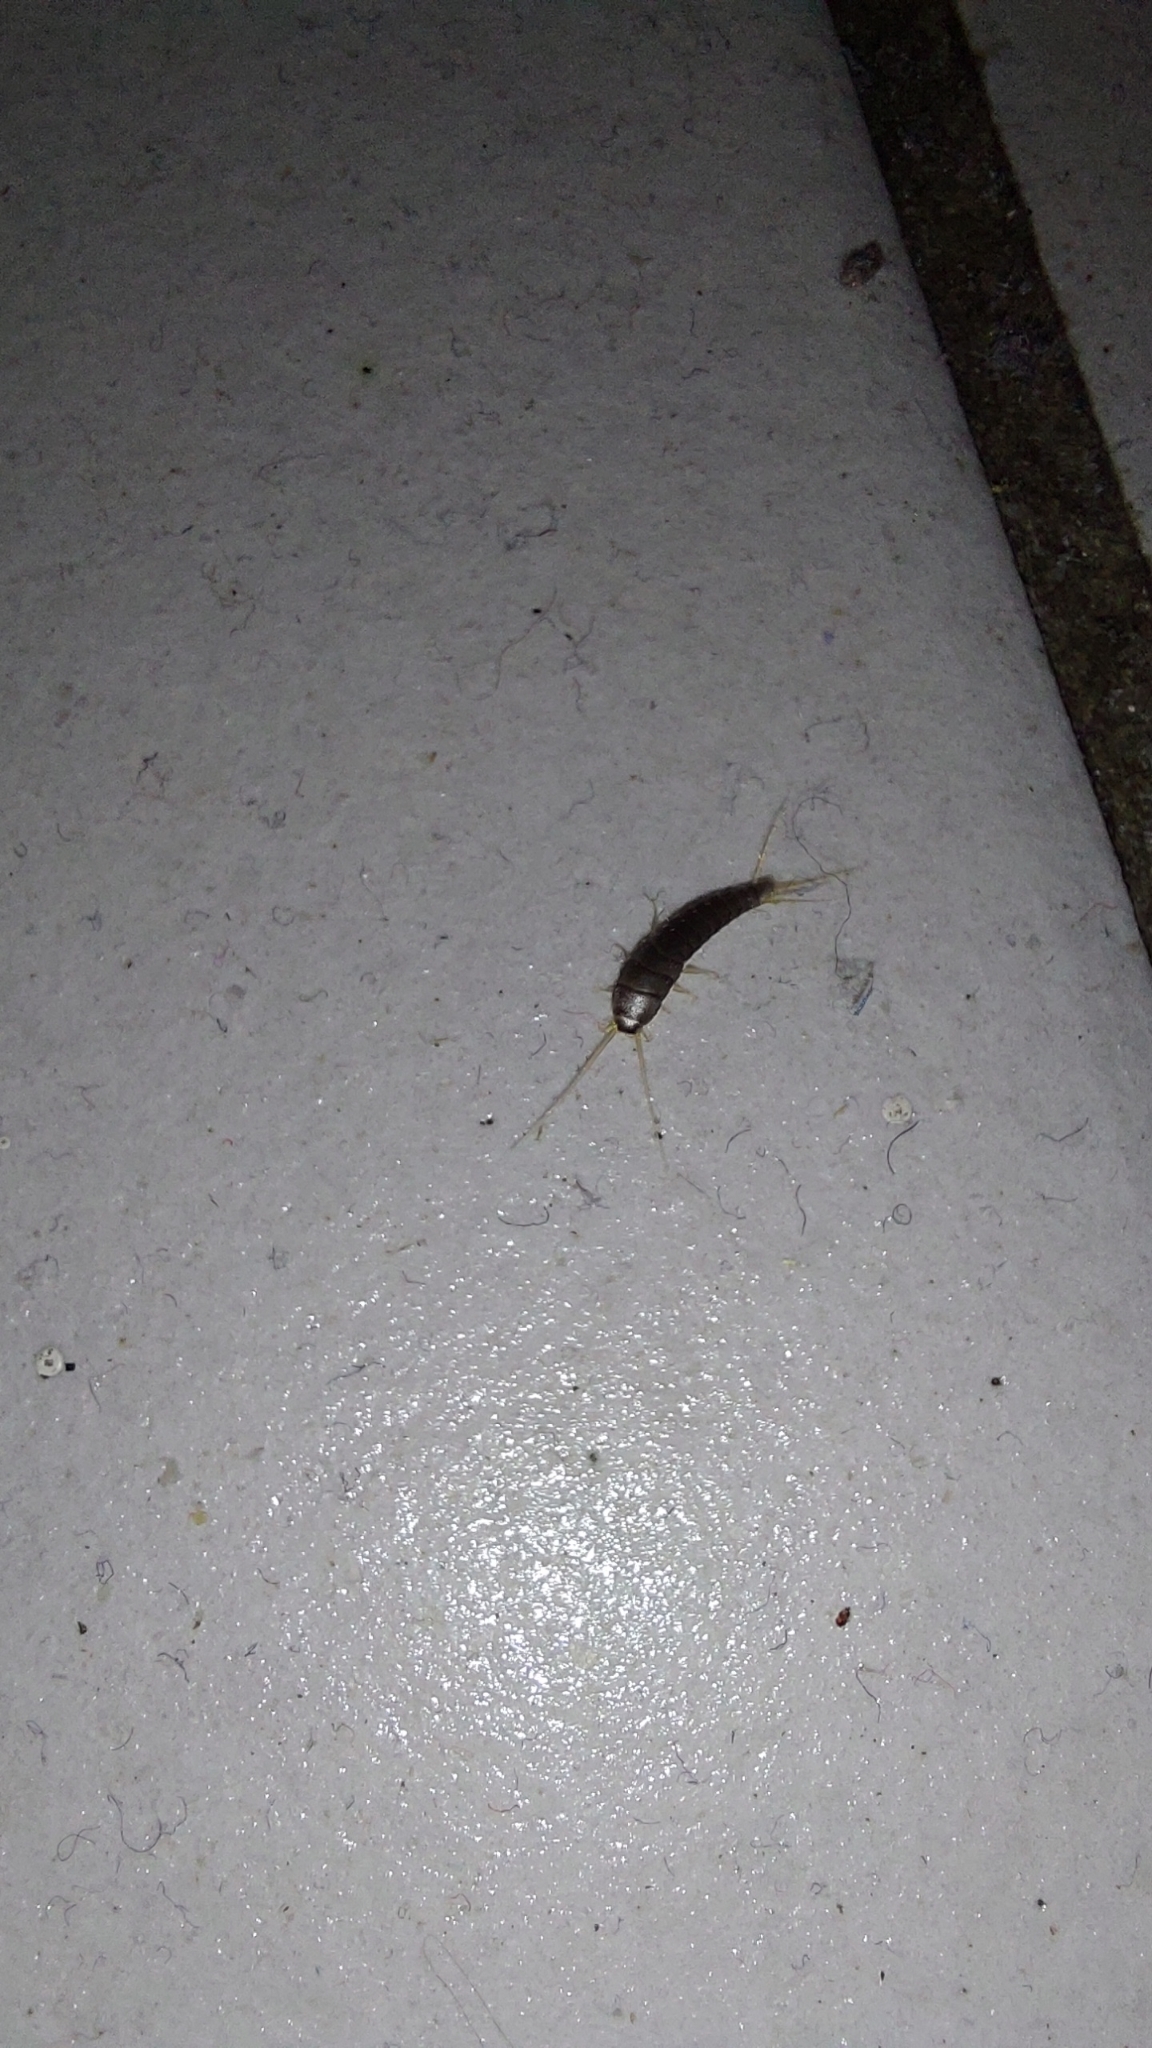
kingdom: Animalia
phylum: Arthropoda
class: Insecta
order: Zygentoma
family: Lepismatidae
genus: Lepisma
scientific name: Lepisma saccharinum
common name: Silverfish
